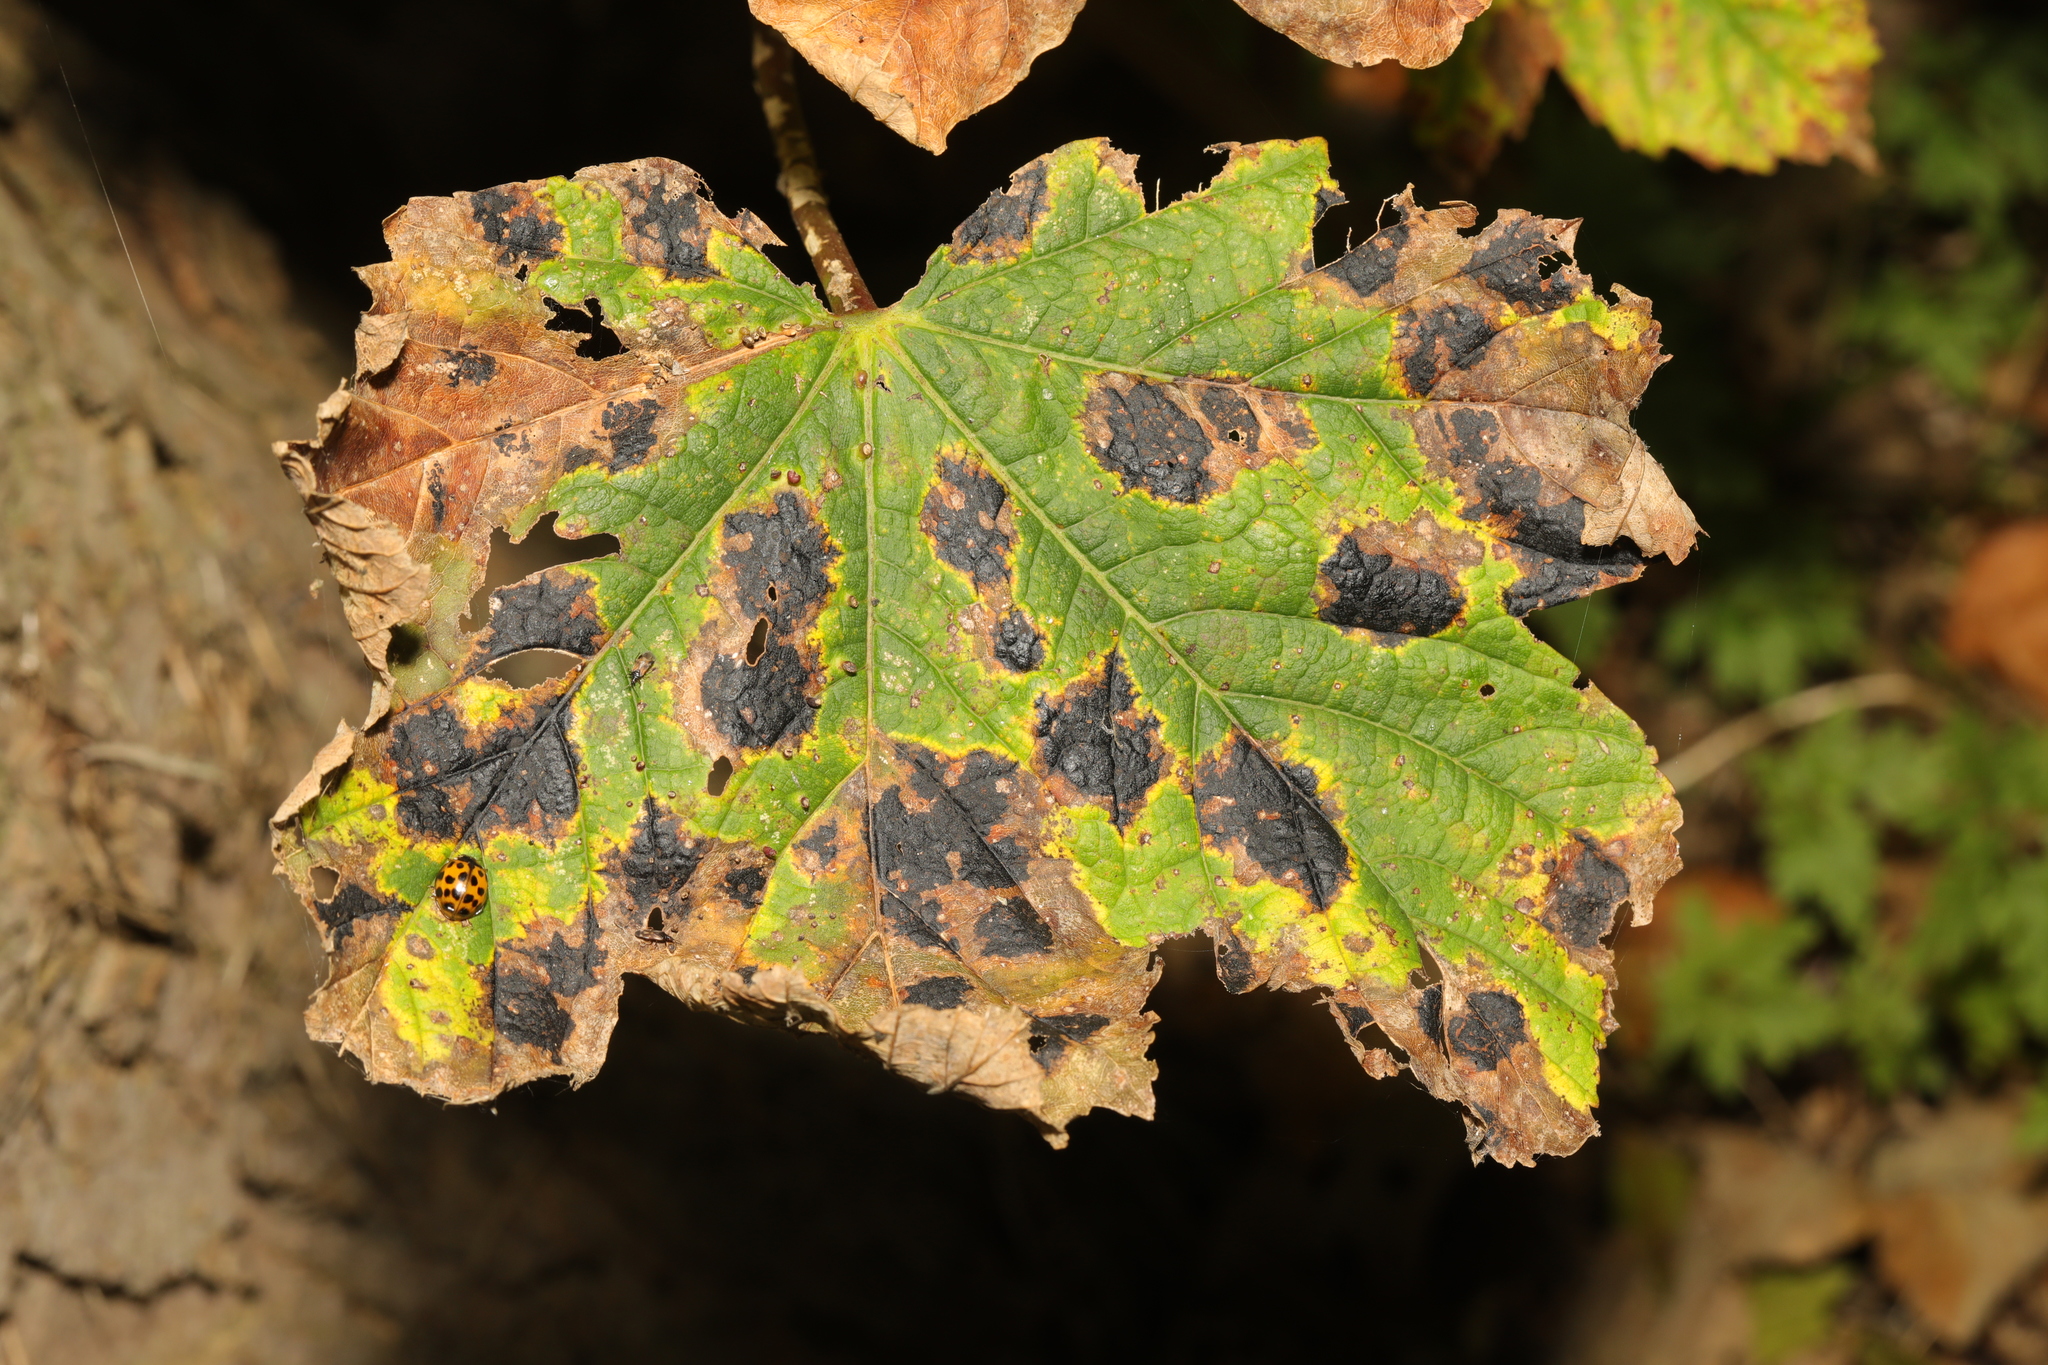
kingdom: Plantae
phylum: Tracheophyta
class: Magnoliopsida
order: Sapindales
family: Sapindaceae
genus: Acer
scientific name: Acer pseudoplatanus
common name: Sycamore
